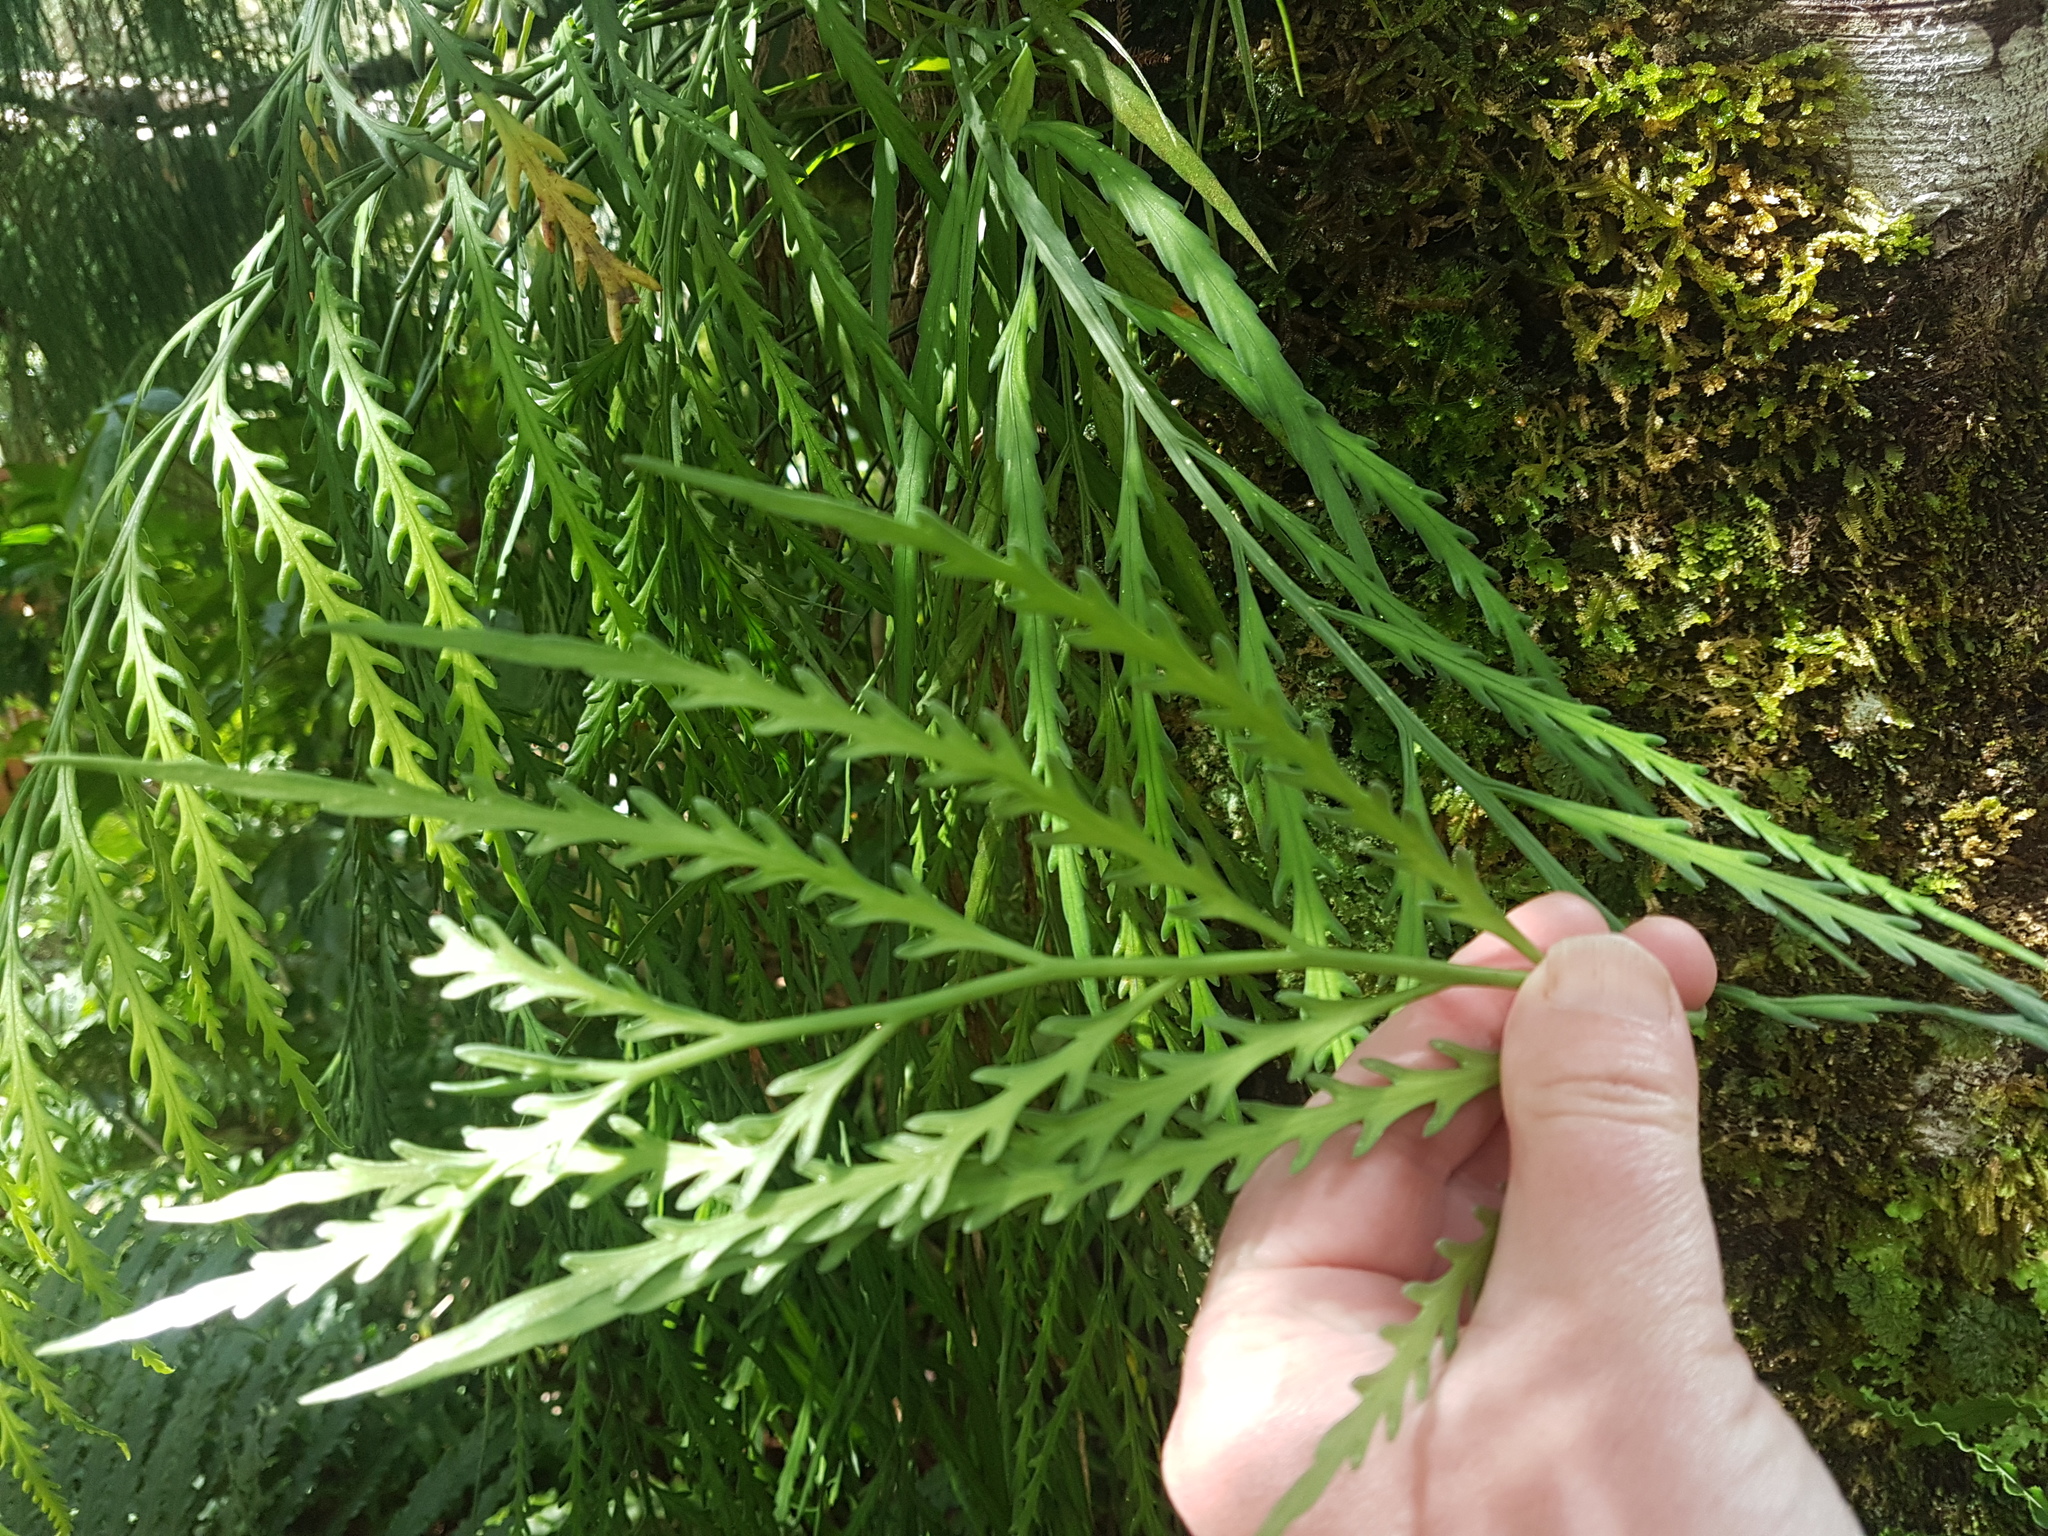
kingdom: Plantae
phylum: Tracheophyta
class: Polypodiopsida
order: Polypodiales
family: Aspleniaceae
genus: Asplenium
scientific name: Asplenium flaccidum
